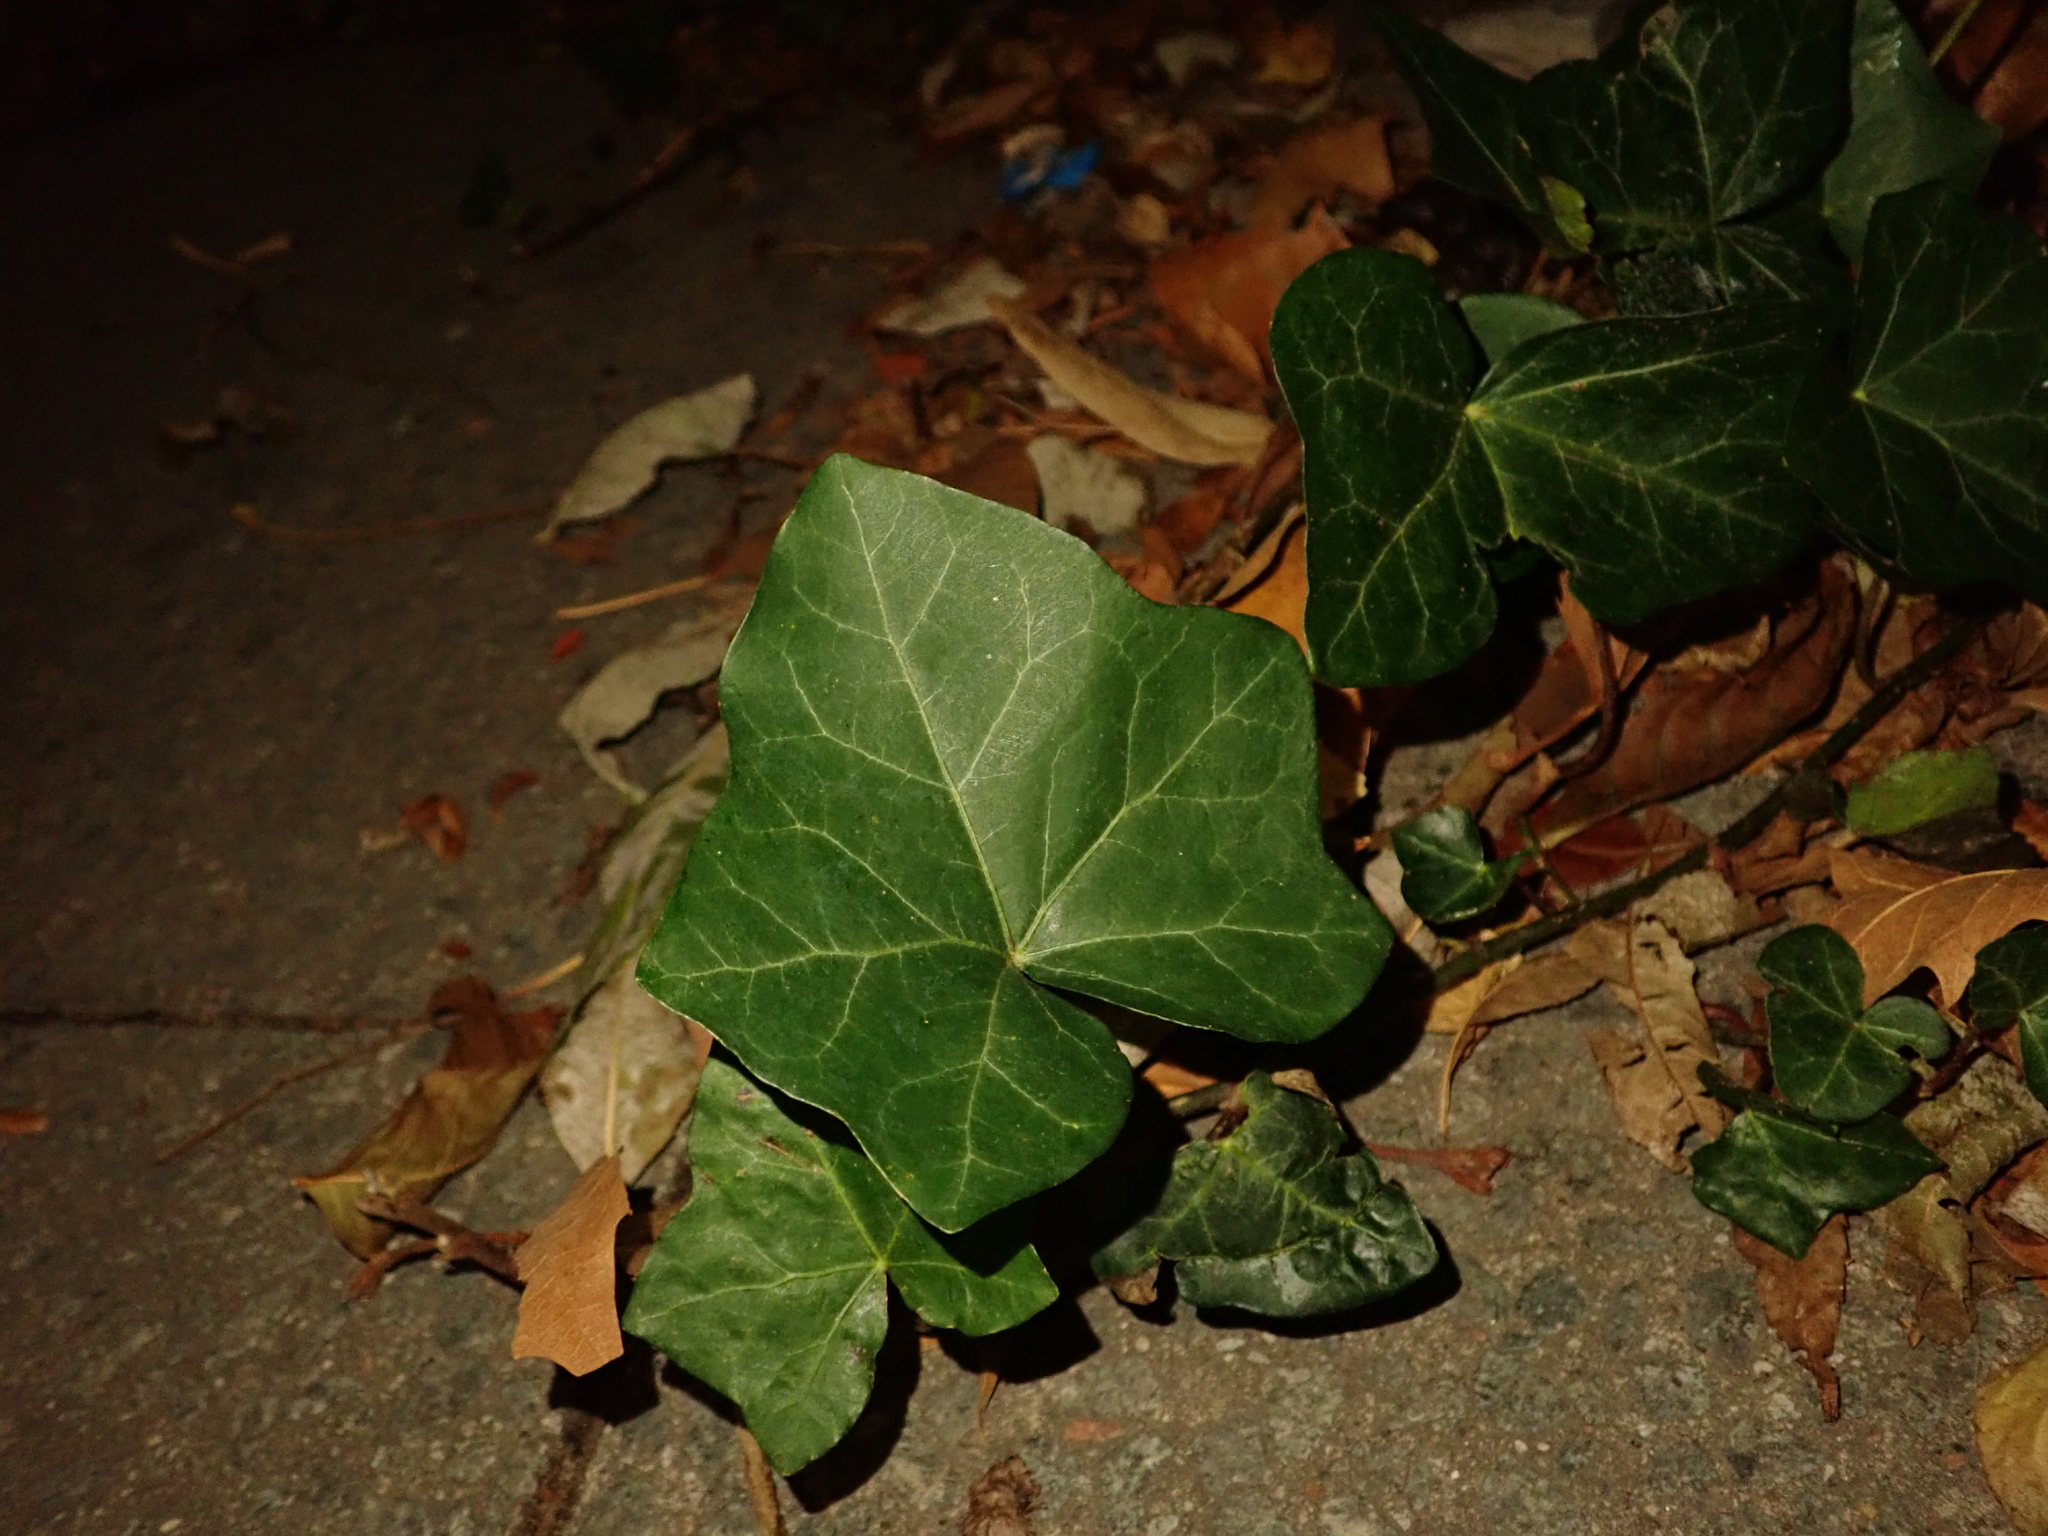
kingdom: Plantae
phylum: Tracheophyta
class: Magnoliopsida
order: Apiales
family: Araliaceae
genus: Hedera
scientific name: Hedera helix
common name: Ivy
